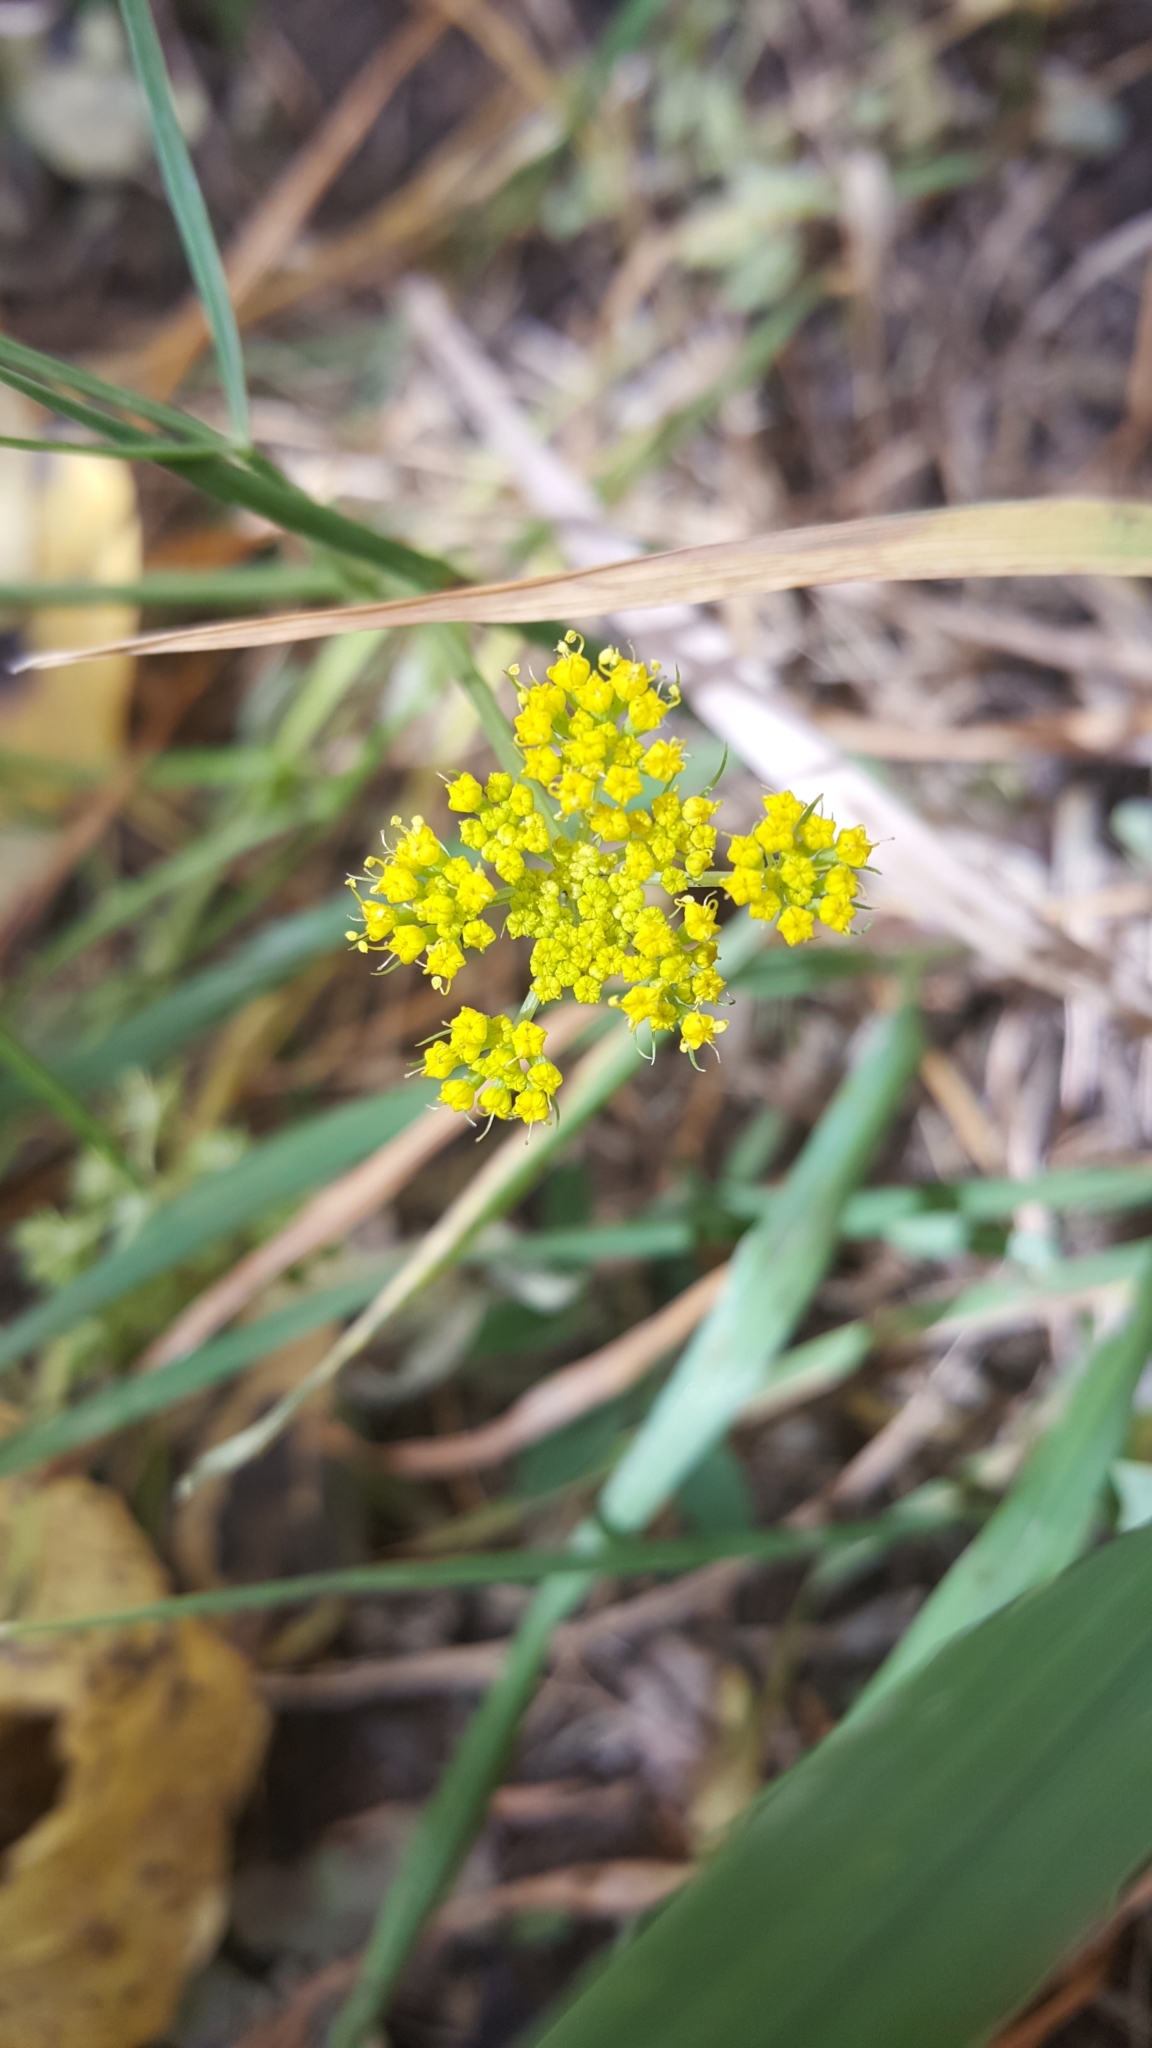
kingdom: Plantae
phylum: Tracheophyta
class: Magnoliopsida
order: Apiales
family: Apiaceae
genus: Cymopterus
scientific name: Cymopterus lemmonii
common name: Lemmon's spring-parsley
